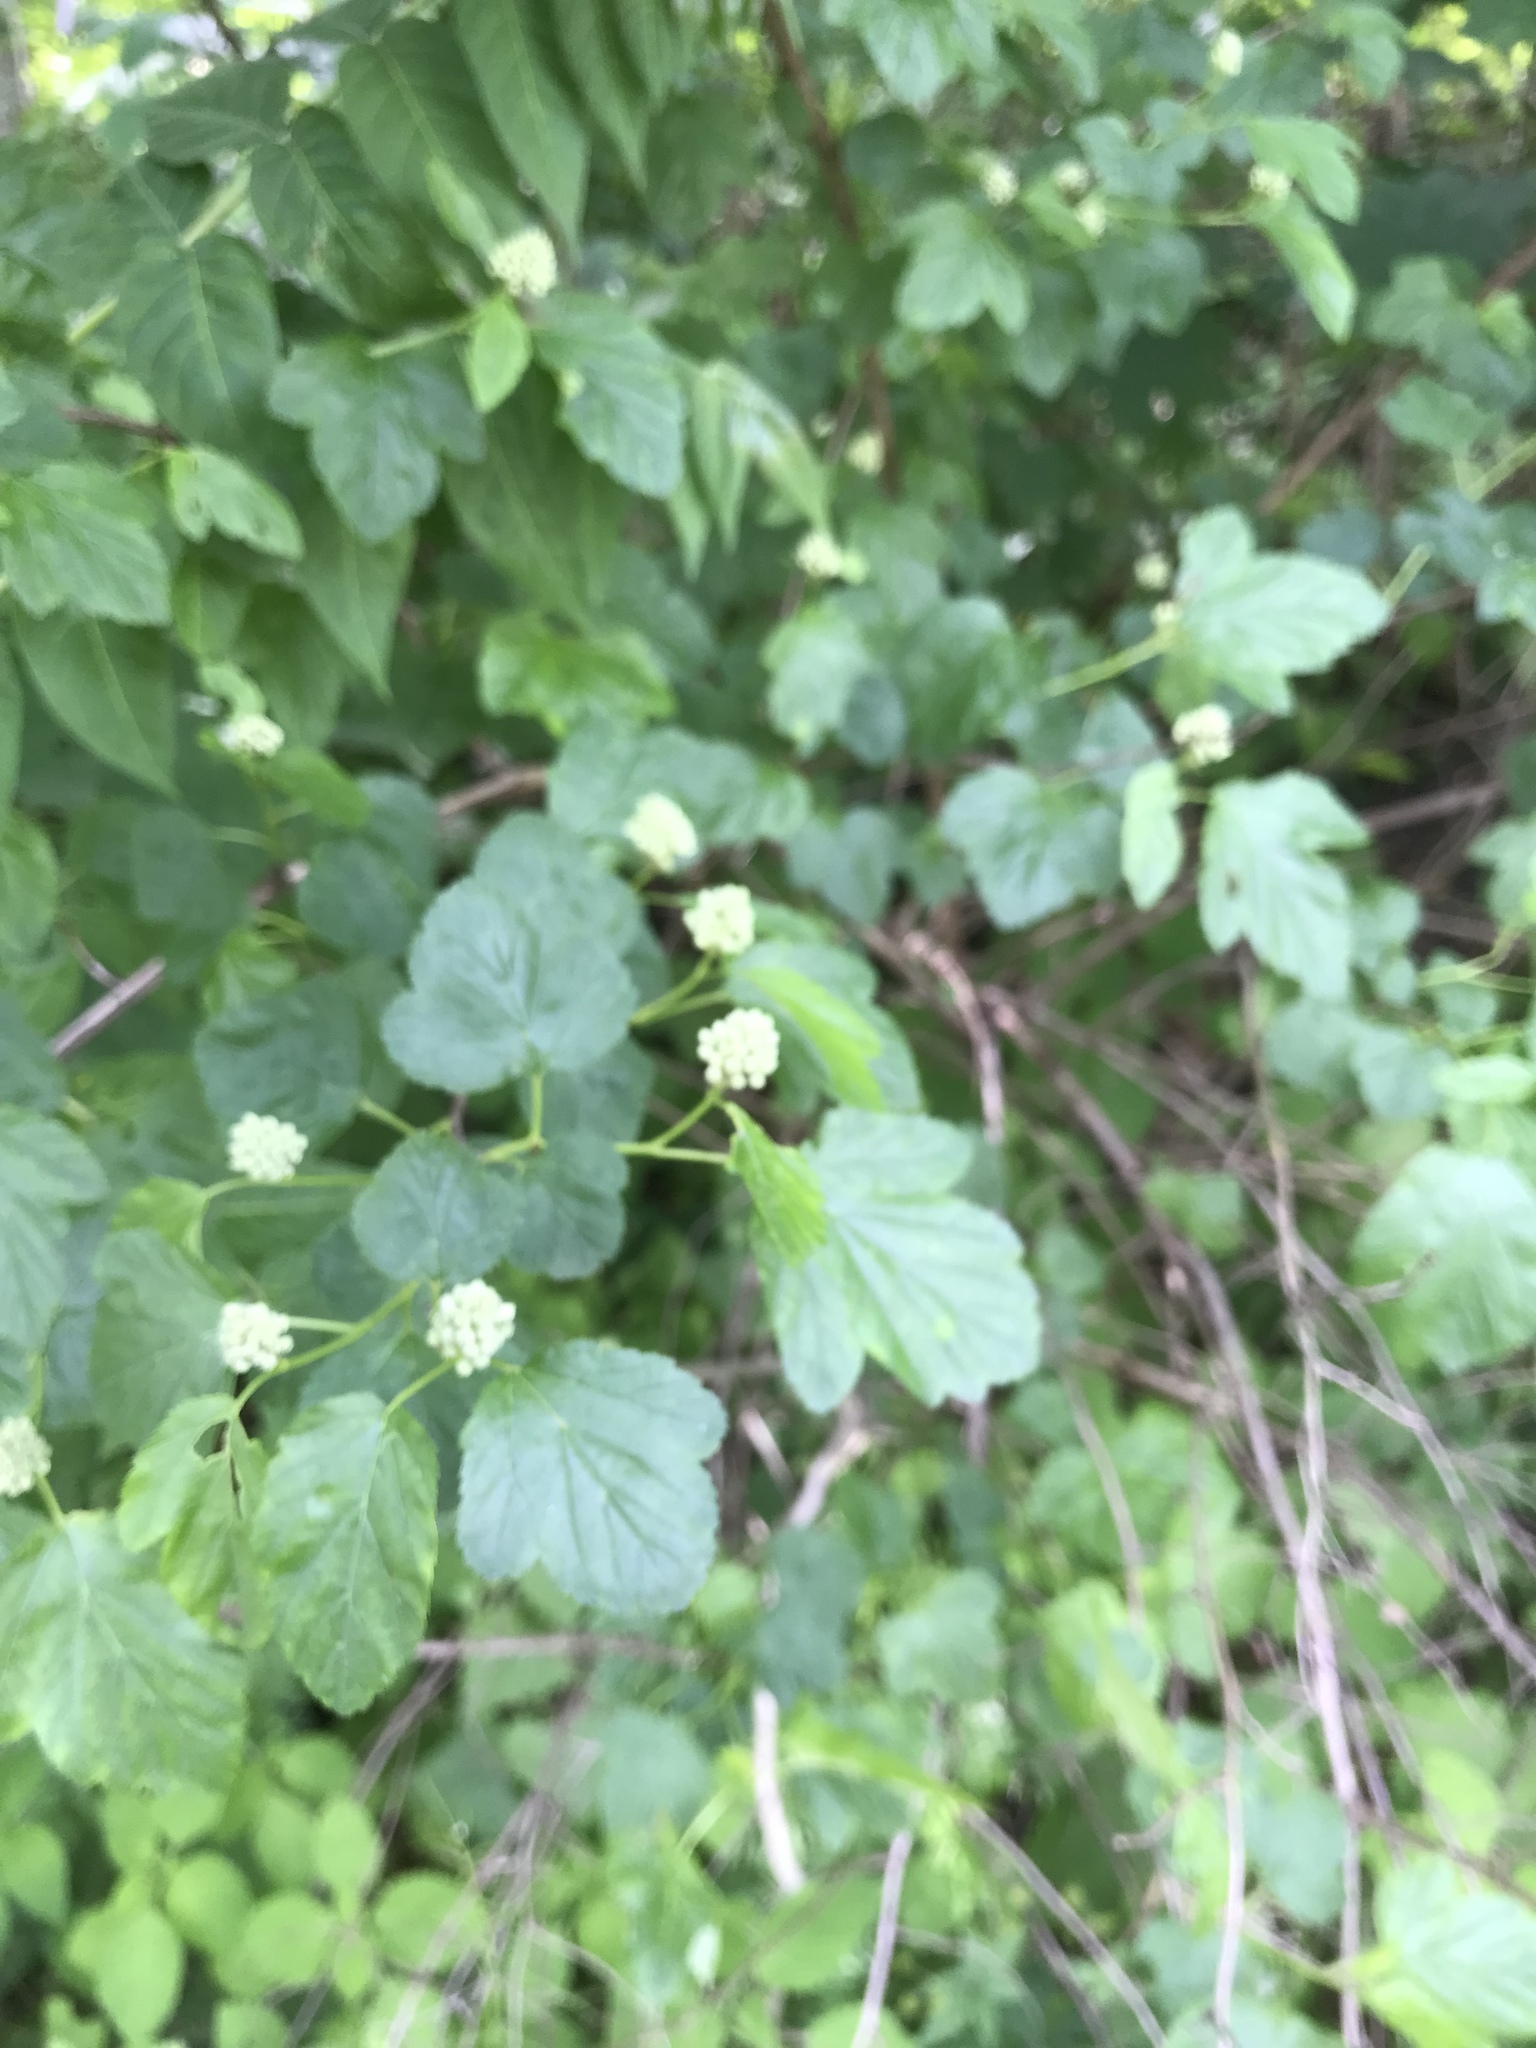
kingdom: Plantae
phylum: Tracheophyta
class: Magnoliopsida
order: Rosales
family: Rosaceae
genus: Physocarpus
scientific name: Physocarpus opulifolius
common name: Ninebark
